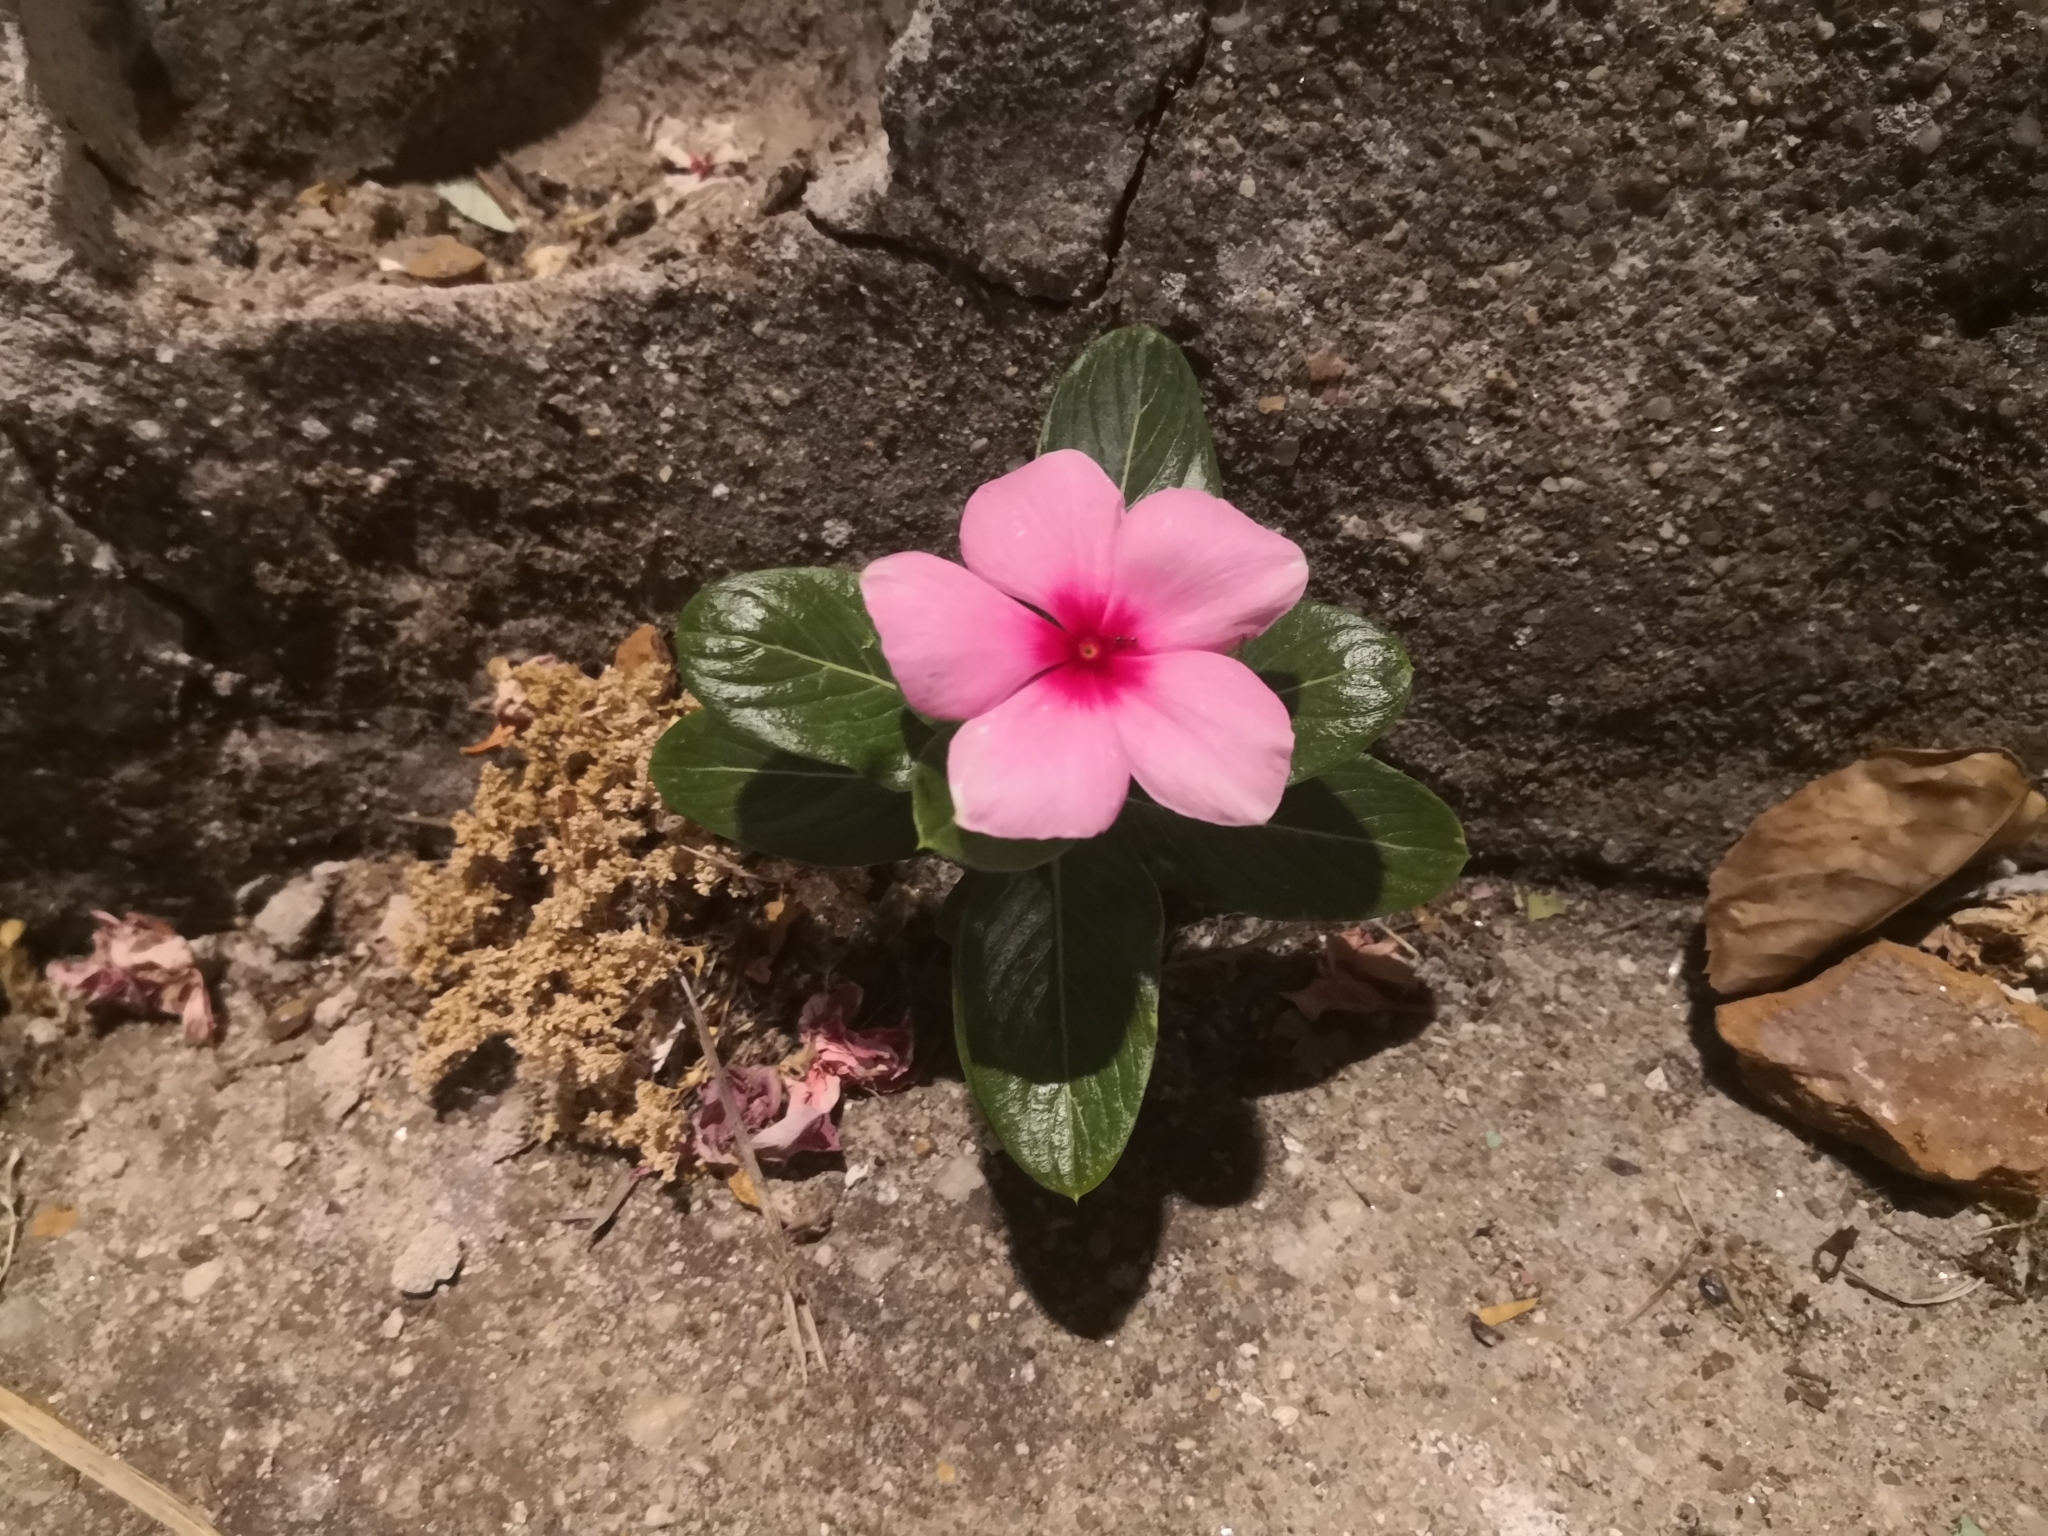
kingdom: Plantae
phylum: Tracheophyta
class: Magnoliopsida
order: Gentianales
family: Apocynaceae
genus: Catharanthus
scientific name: Catharanthus roseus
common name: Madagascar periwinkle
